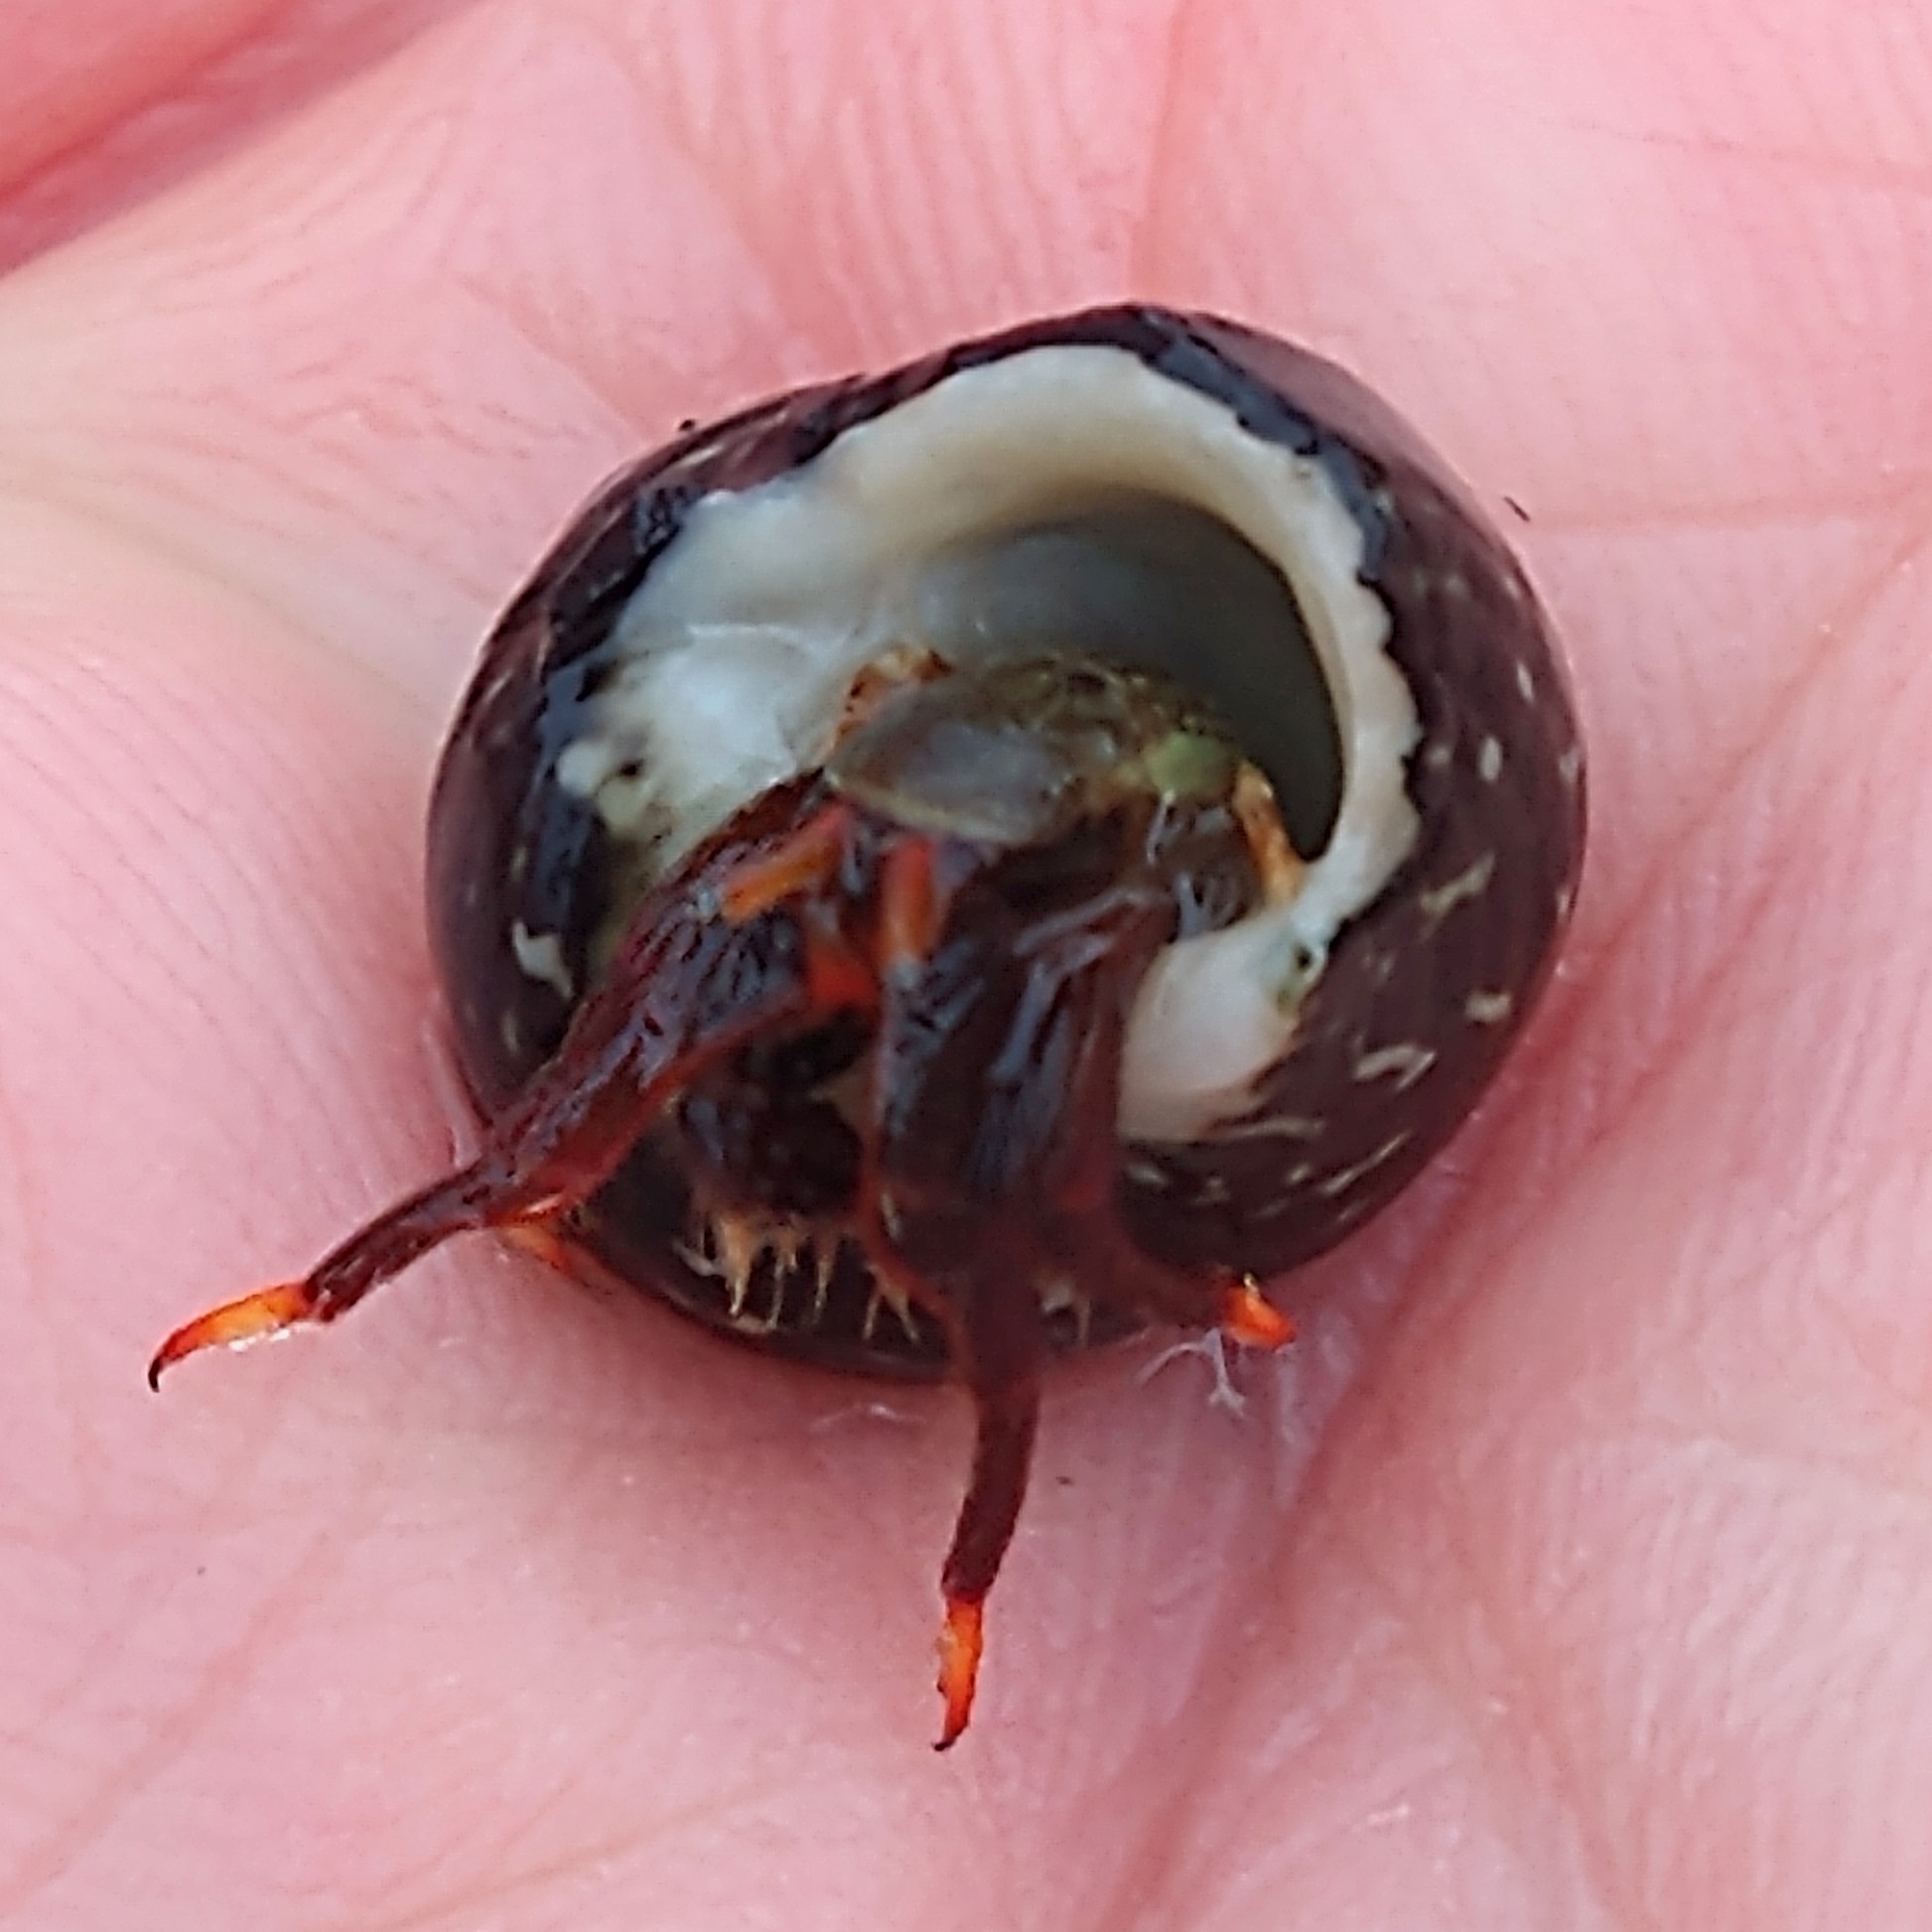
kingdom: Animalia
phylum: Arthropoda
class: Malacostraca
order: Decapoda
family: Diogenidae
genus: Clibanarius
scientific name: Clibanarius aequabilis
